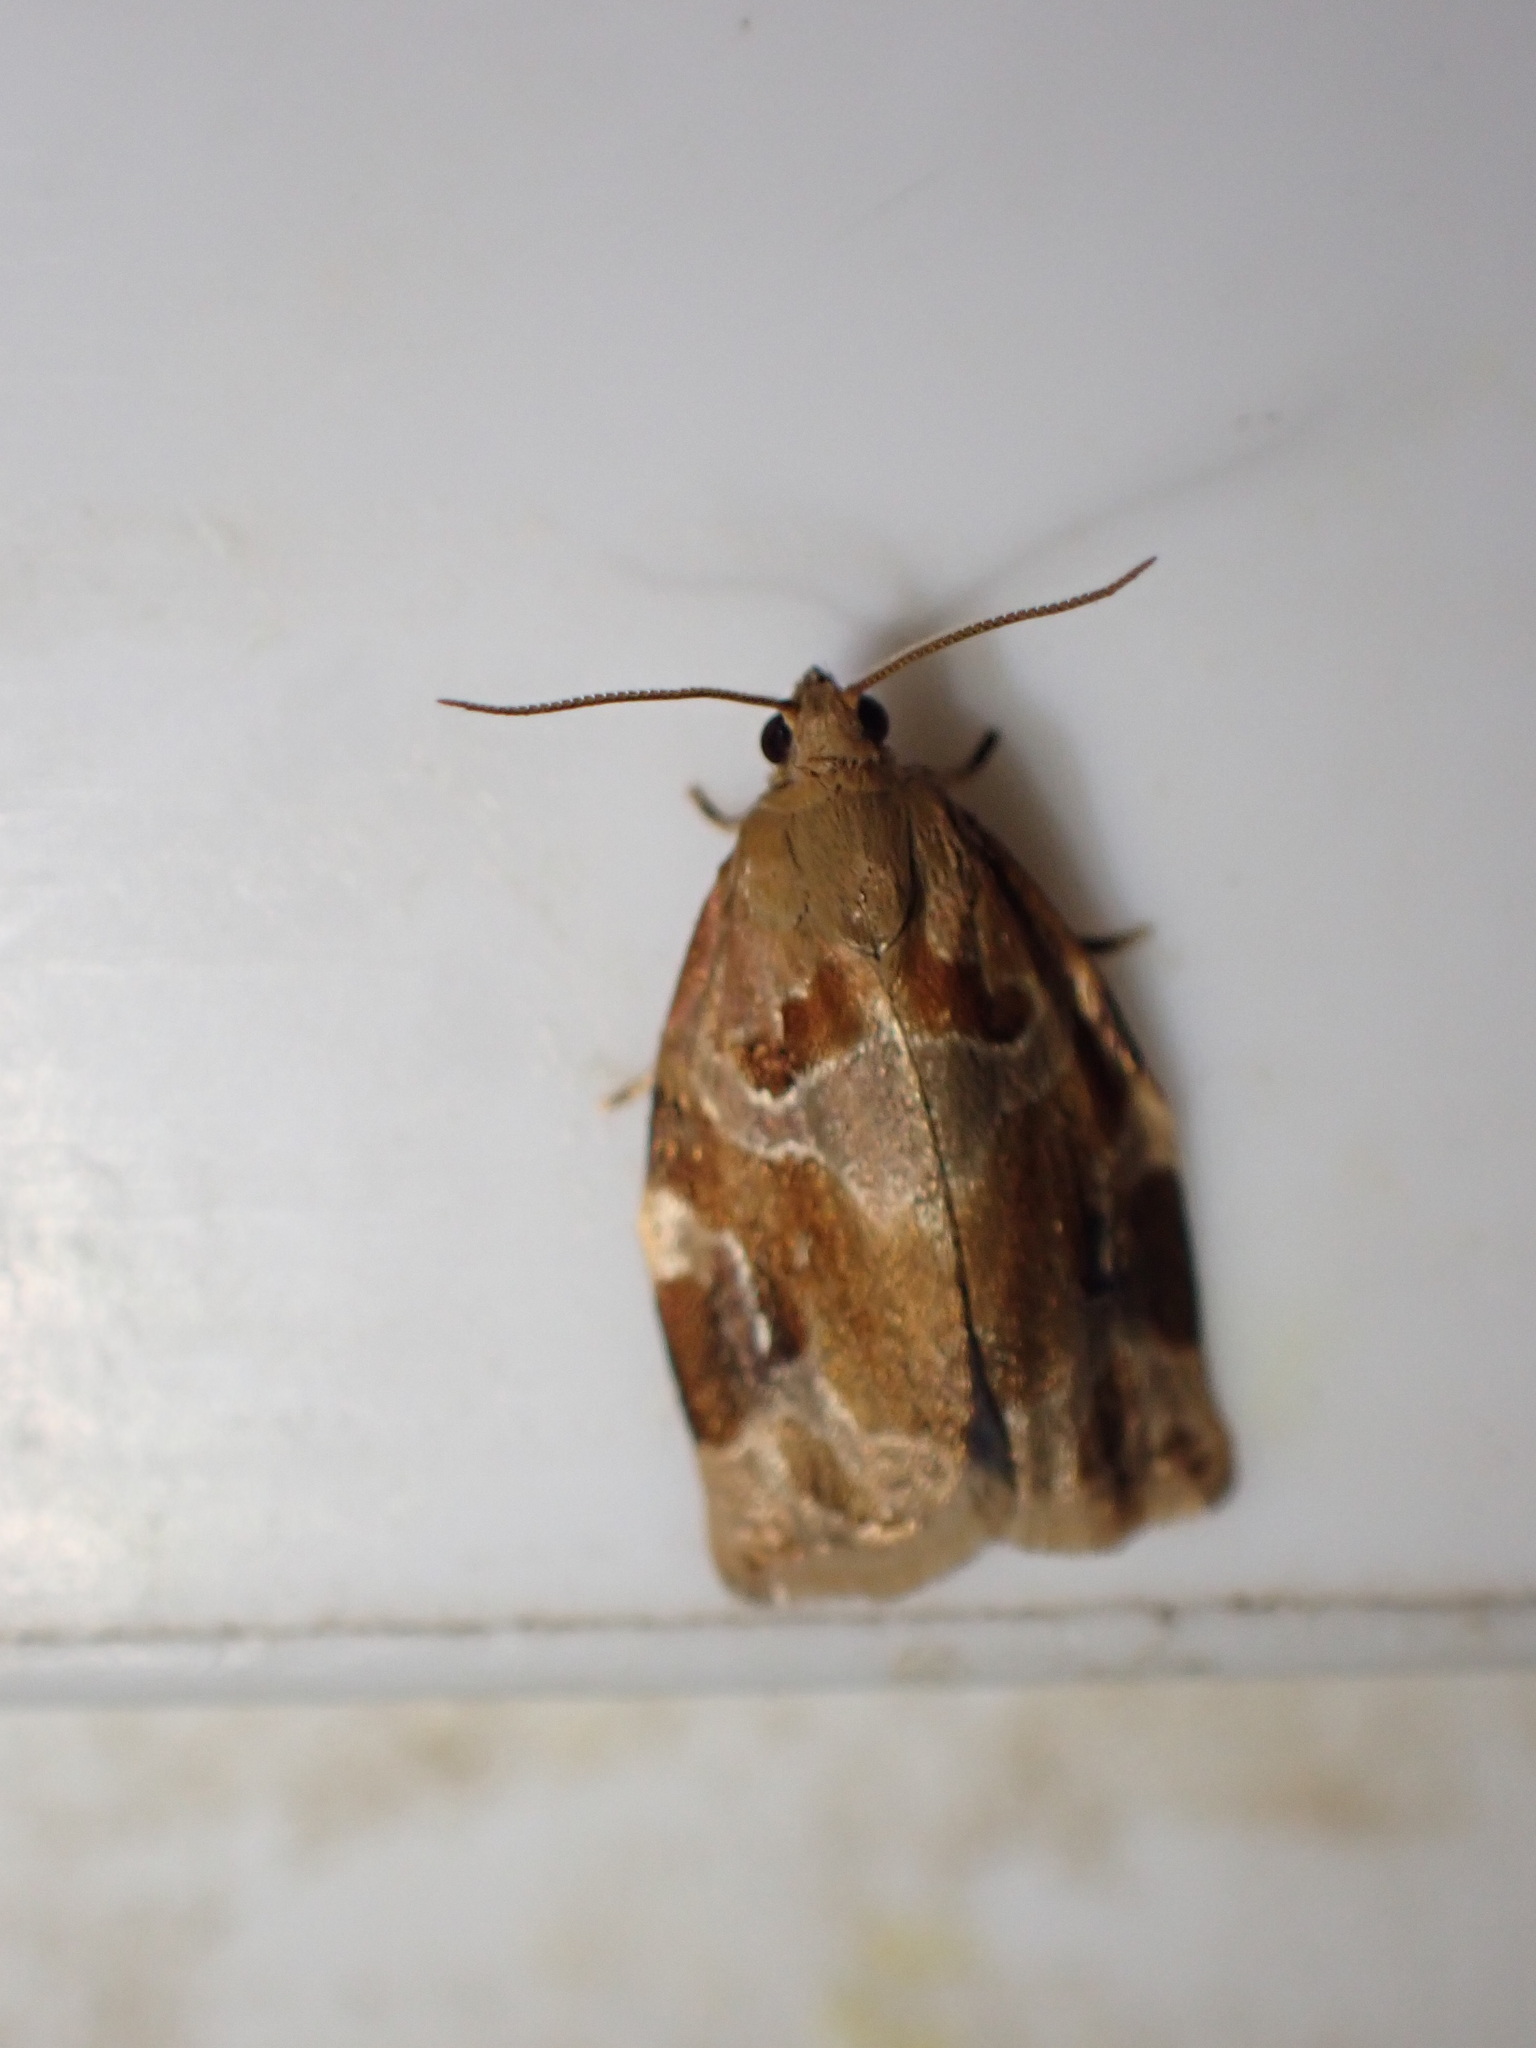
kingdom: Animalia
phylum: Arthropoda
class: Insecta
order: Lepidoptera
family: Tortricidae
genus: Archips
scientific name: Archips xylosteana
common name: Variegated golden tortrix
